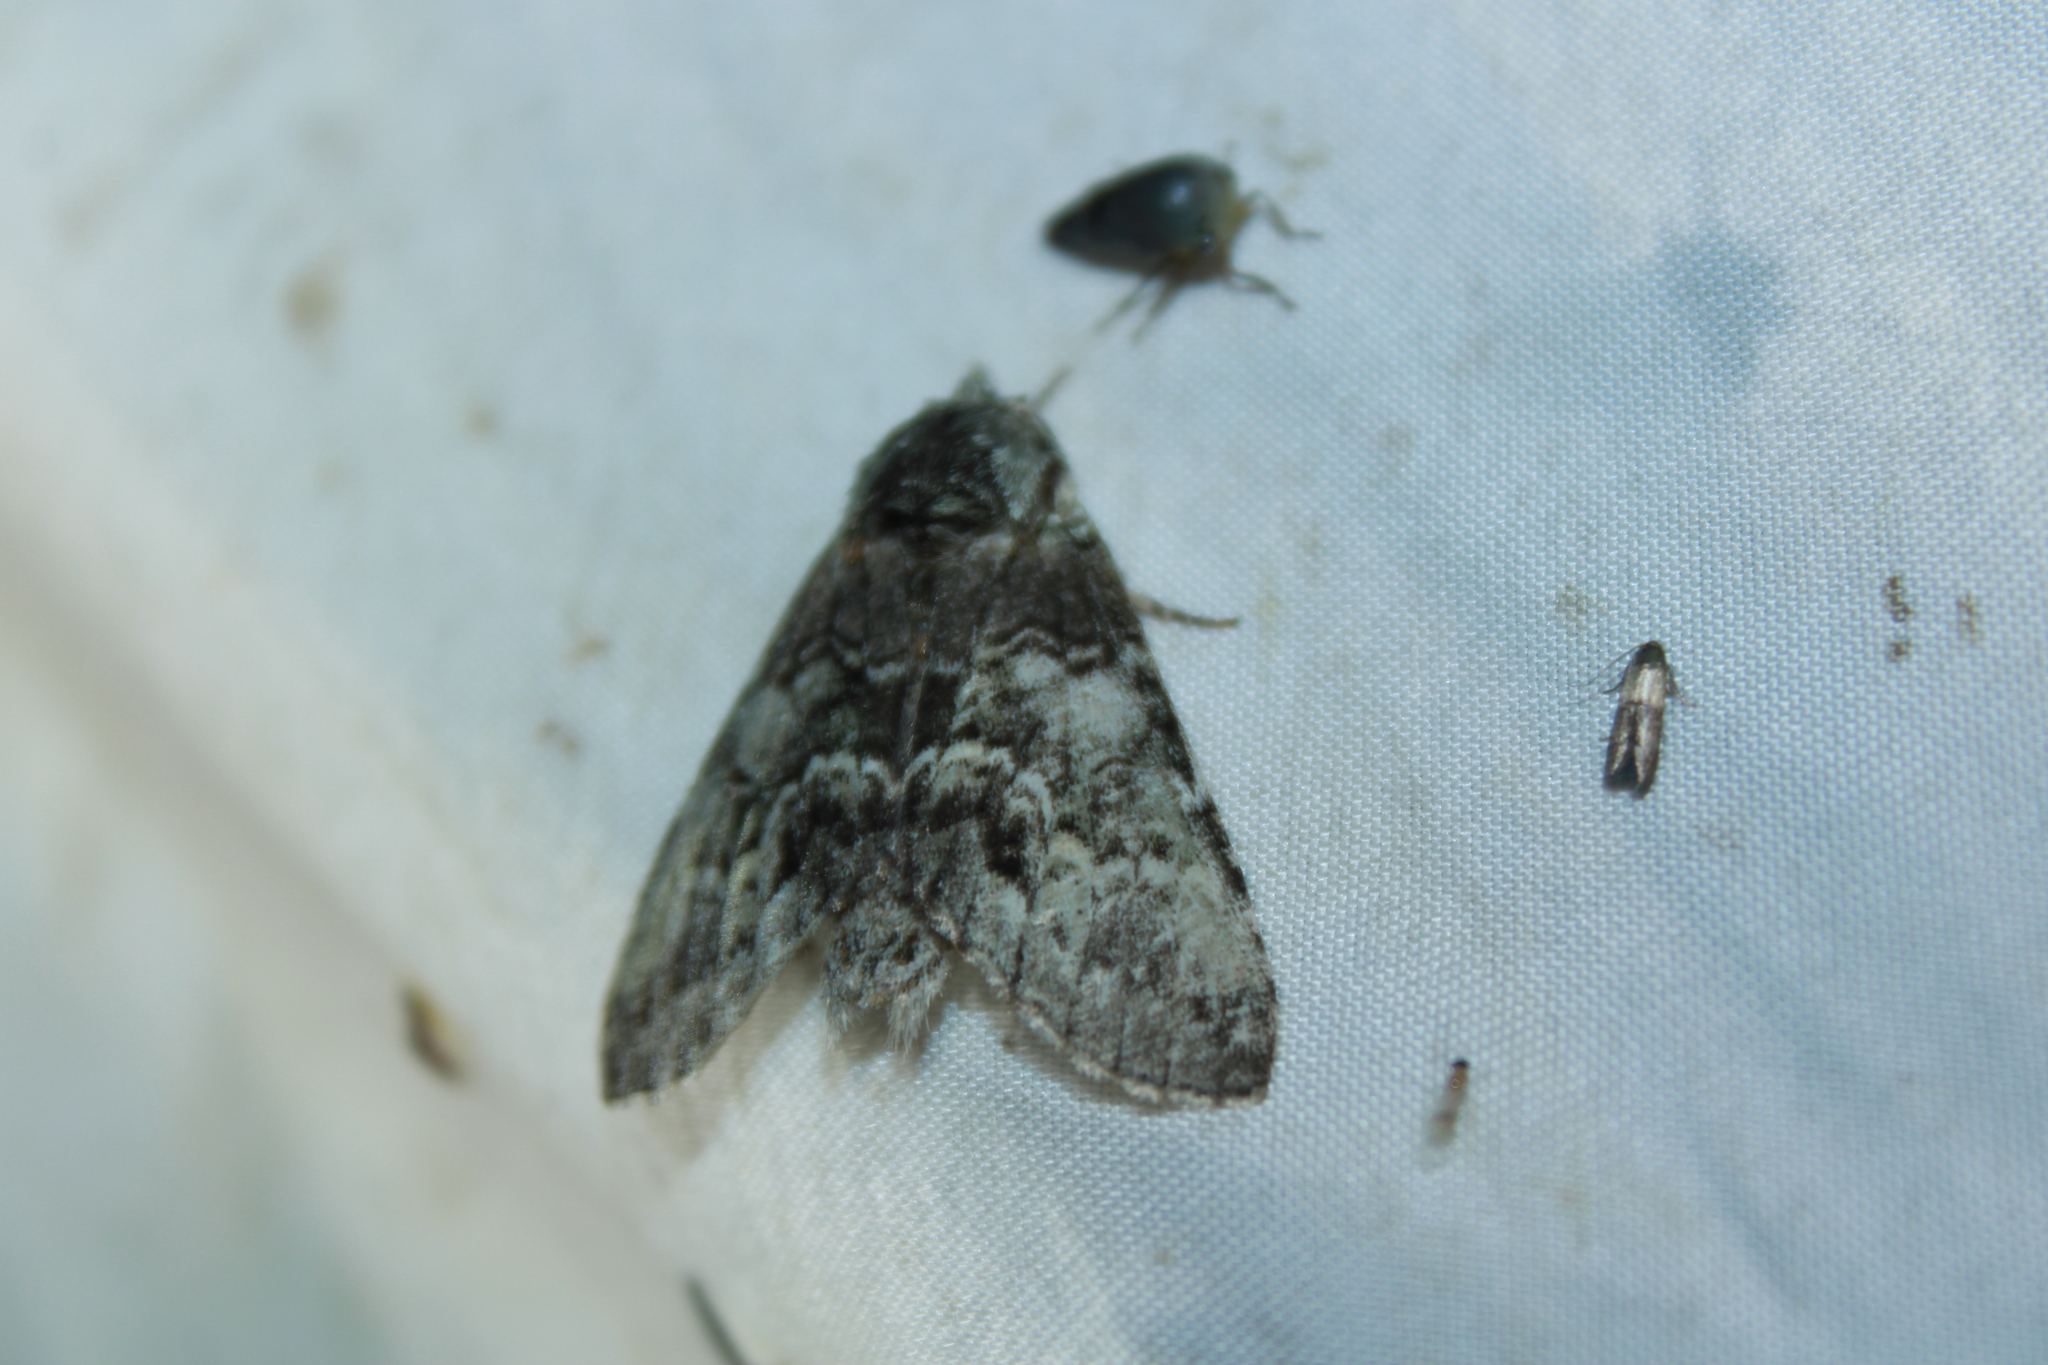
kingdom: Animalia
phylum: Arthropoda
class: Insecta
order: Lepidoptera
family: Notodontidae
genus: Macrurocampa
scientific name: Macrurocampa marthesia
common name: Mottled prominent
